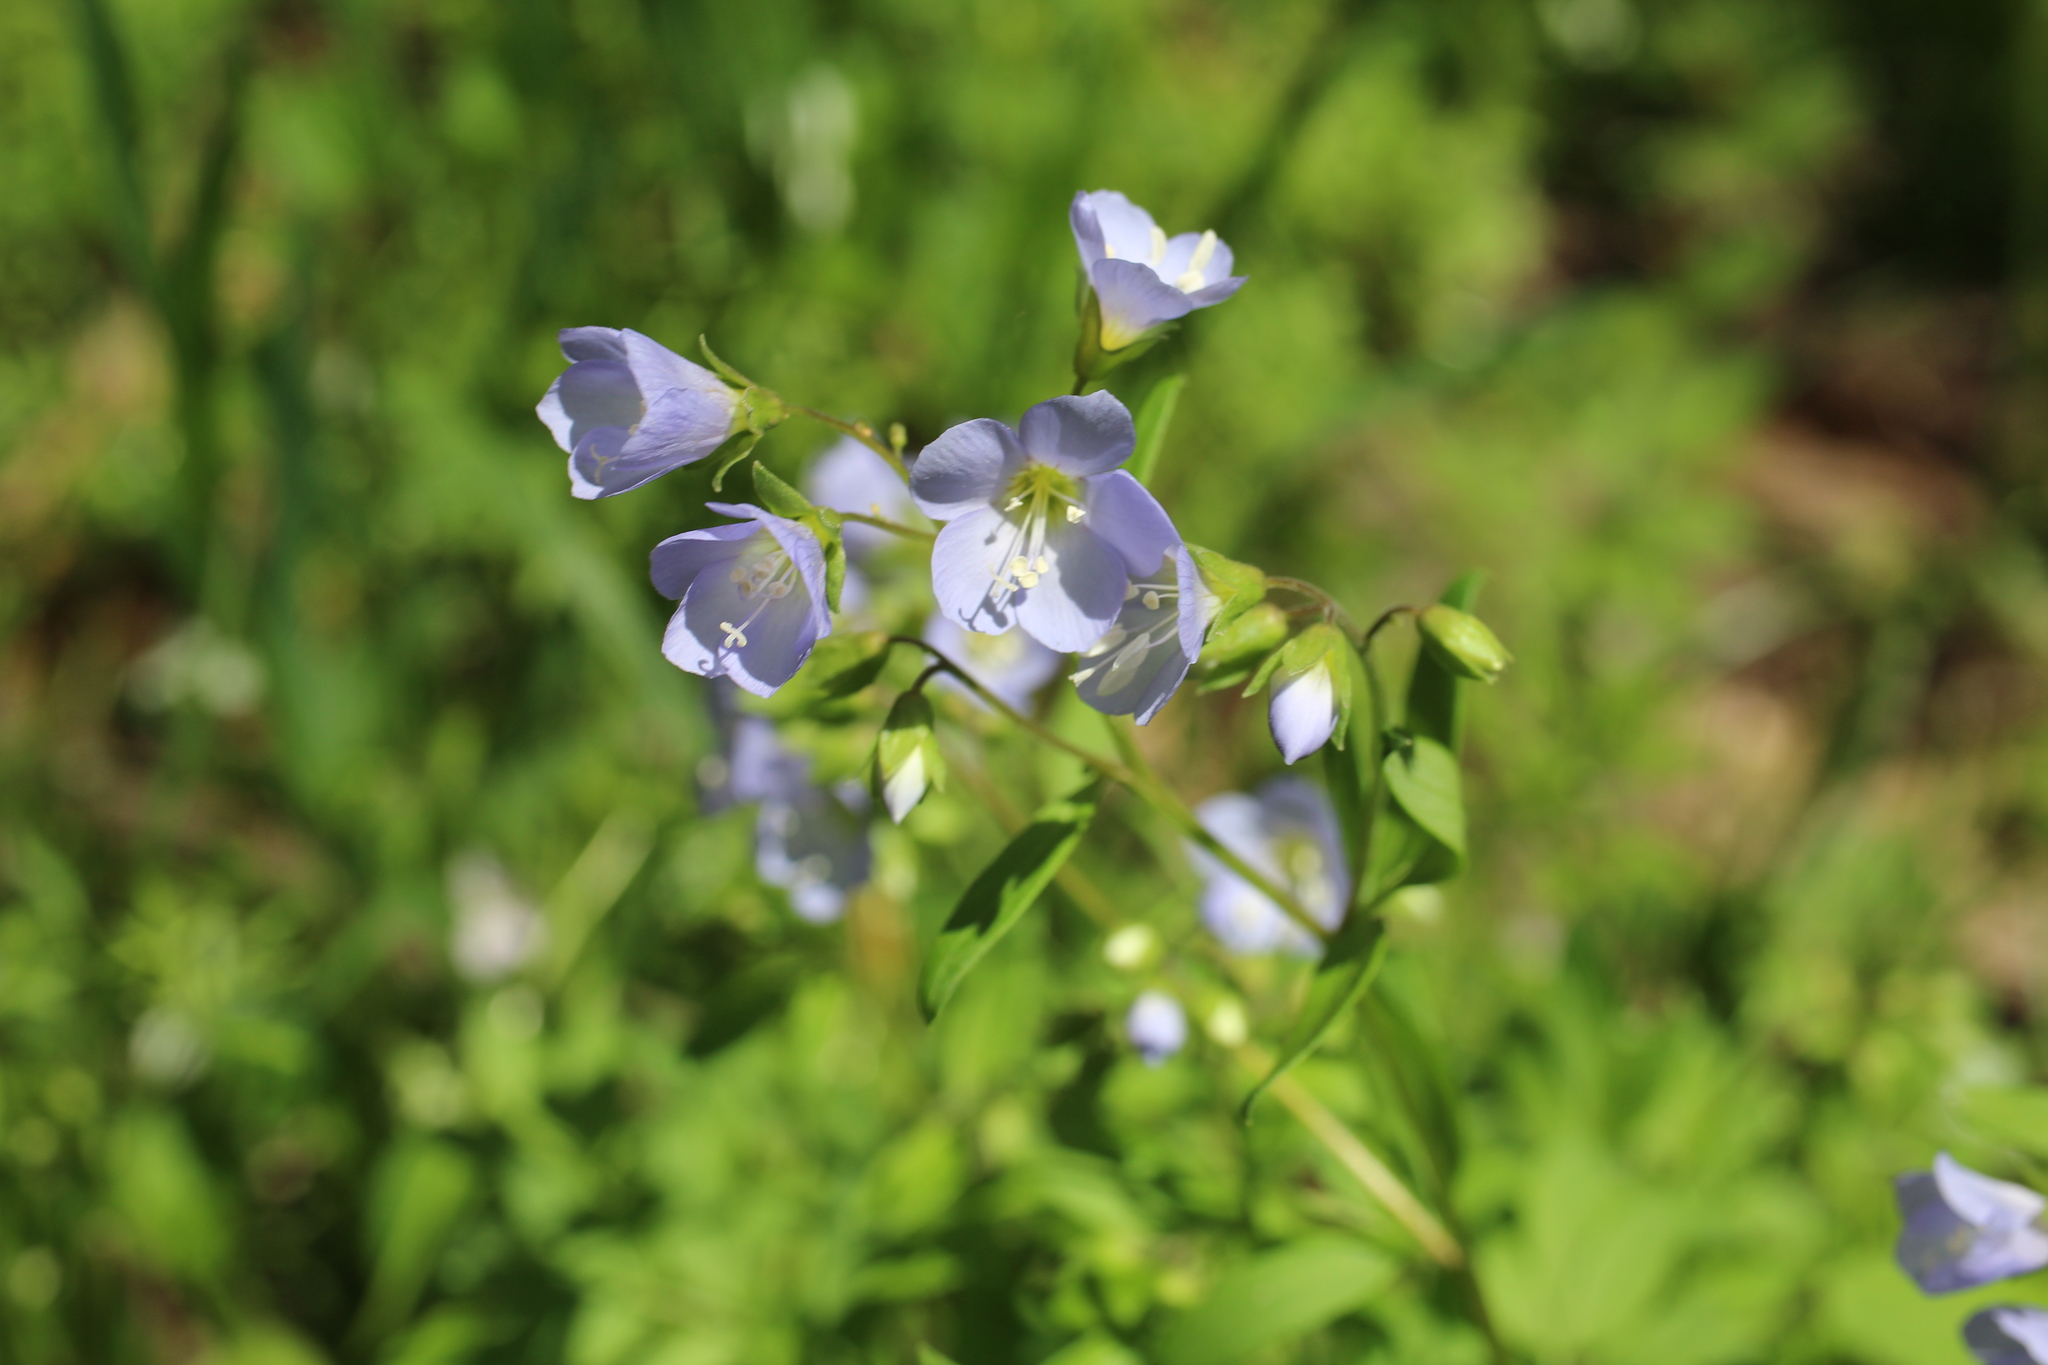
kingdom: Plantae
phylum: Tracheophyta
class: Magnoliopsida
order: Ericales
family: Polemoniaceae
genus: Polemonium
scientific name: Polemonium reptans
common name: Creeping jacob's-ladder
